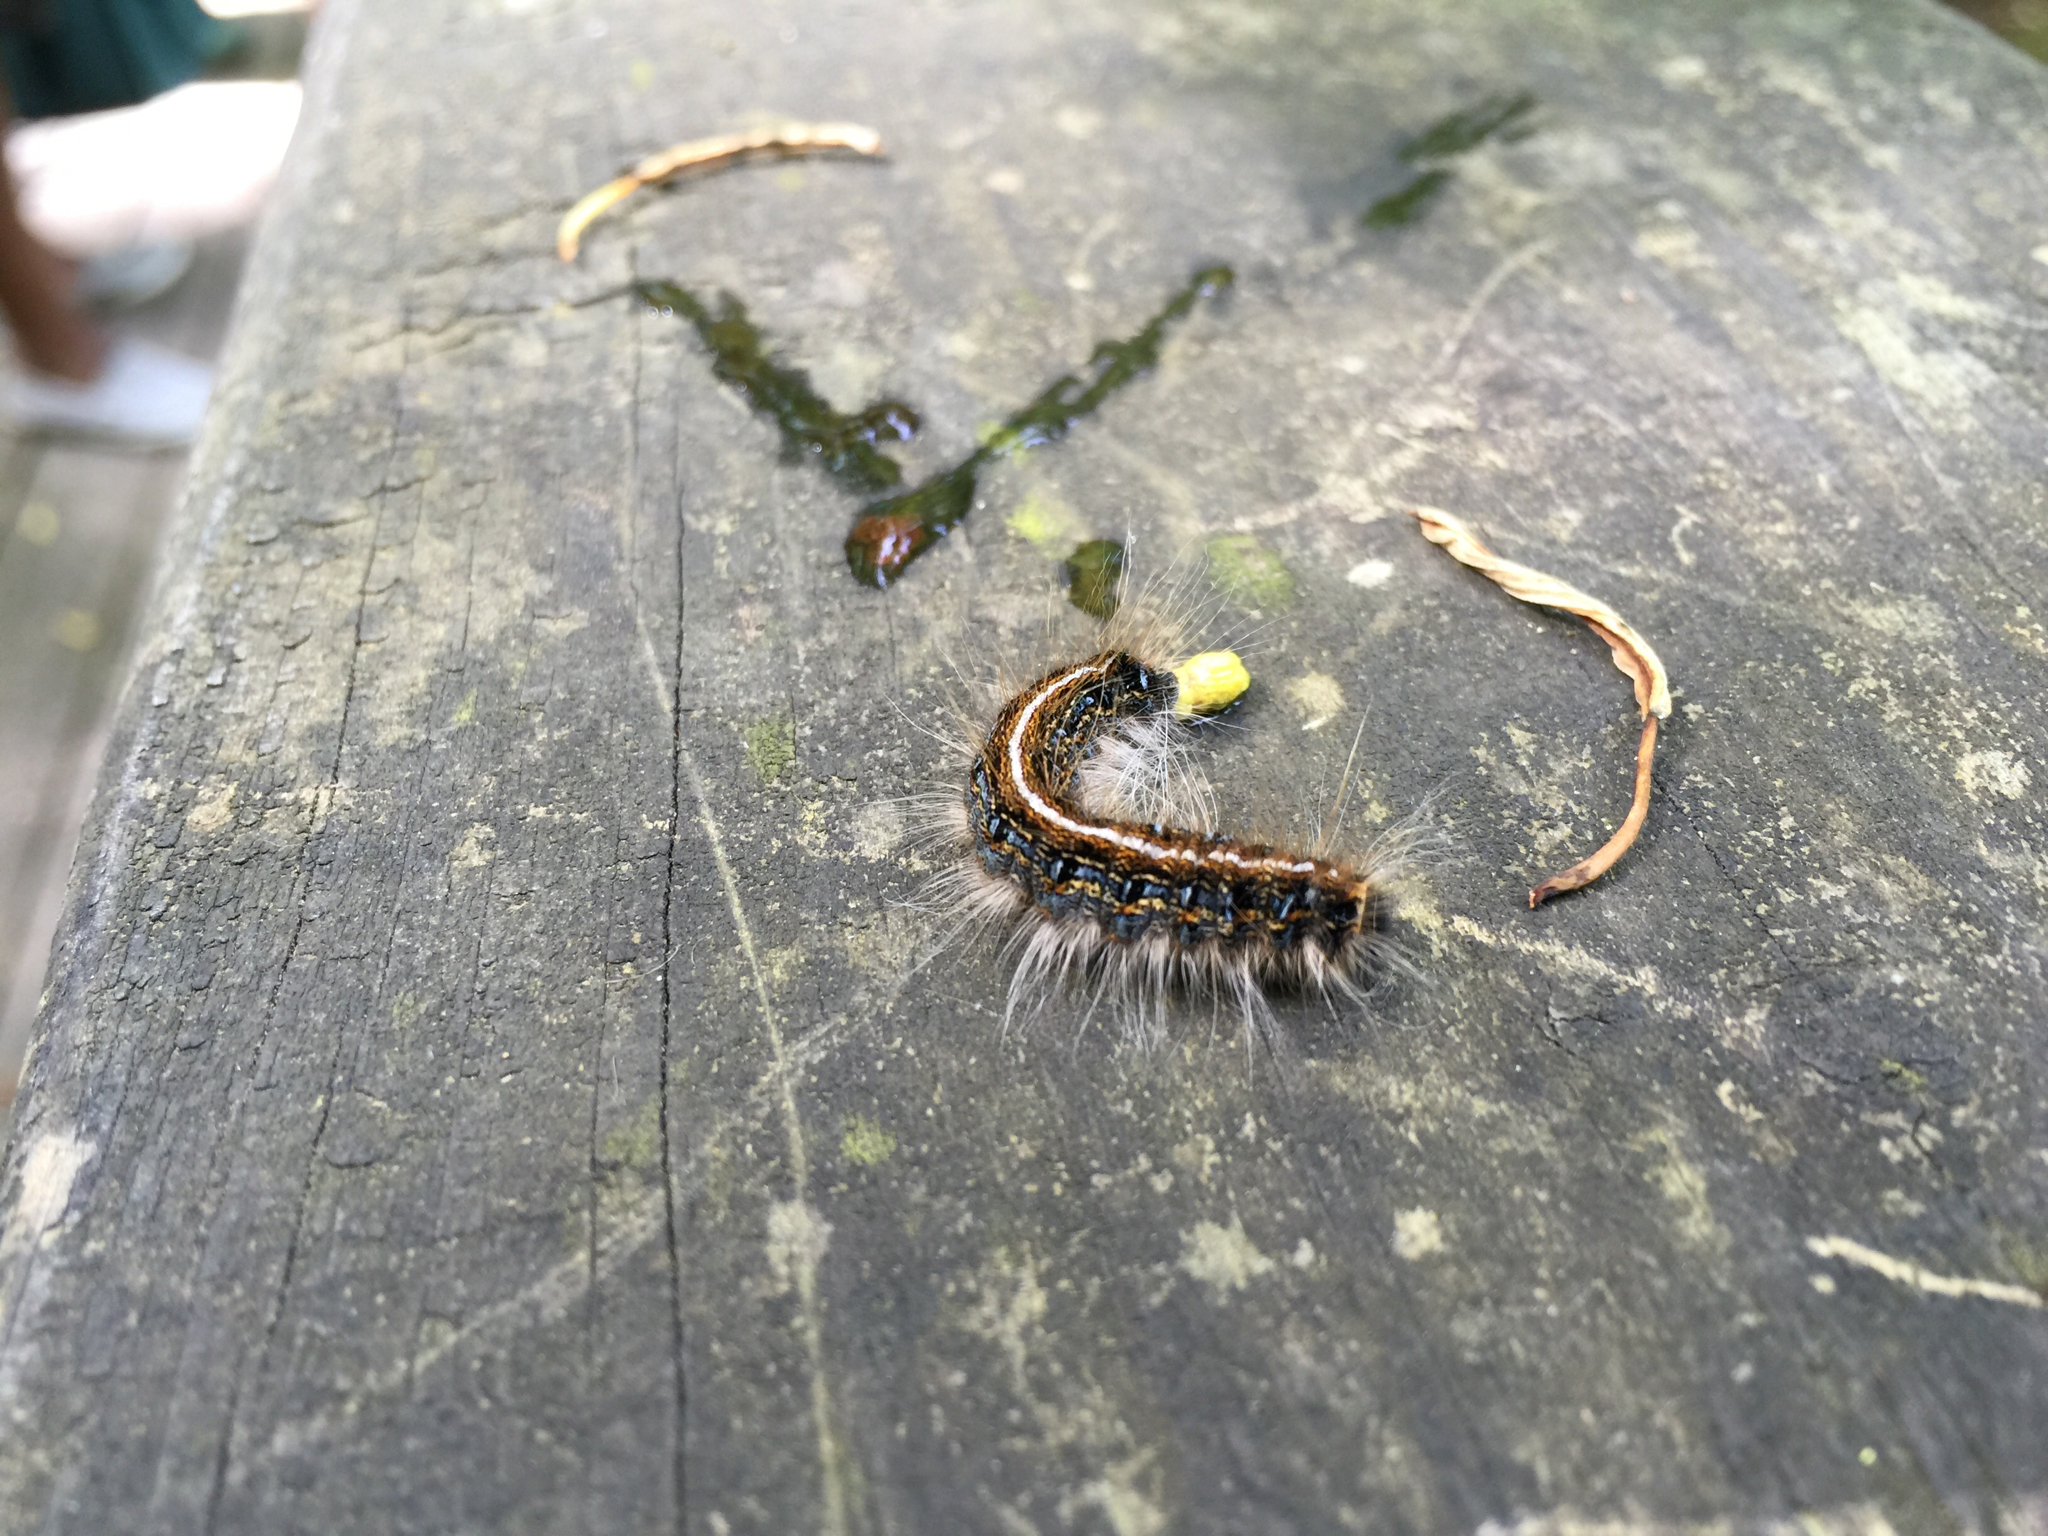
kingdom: Animalia
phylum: Arthropoda
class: Insecta
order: Lepidoptera
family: Lasiocampidae
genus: Malacosoma
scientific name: Malacosoma americana
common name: Eastern tent caterpillar moth
